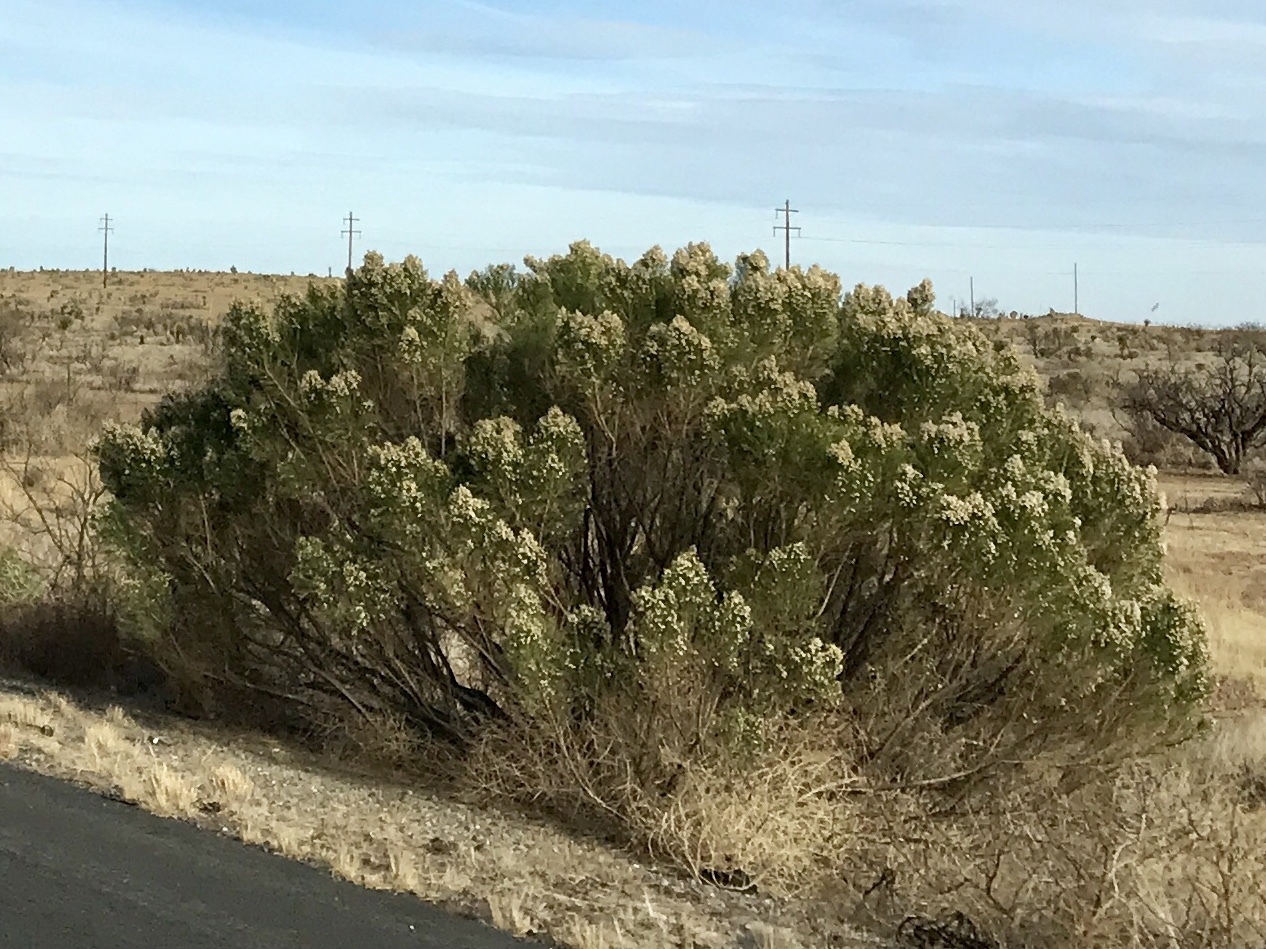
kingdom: Plantae
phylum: Tracheophyta
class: Magnoliopsida
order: Asterales
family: Asteraceae
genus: Baccharis
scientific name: Baccharis sarothroides
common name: Desert-broom
